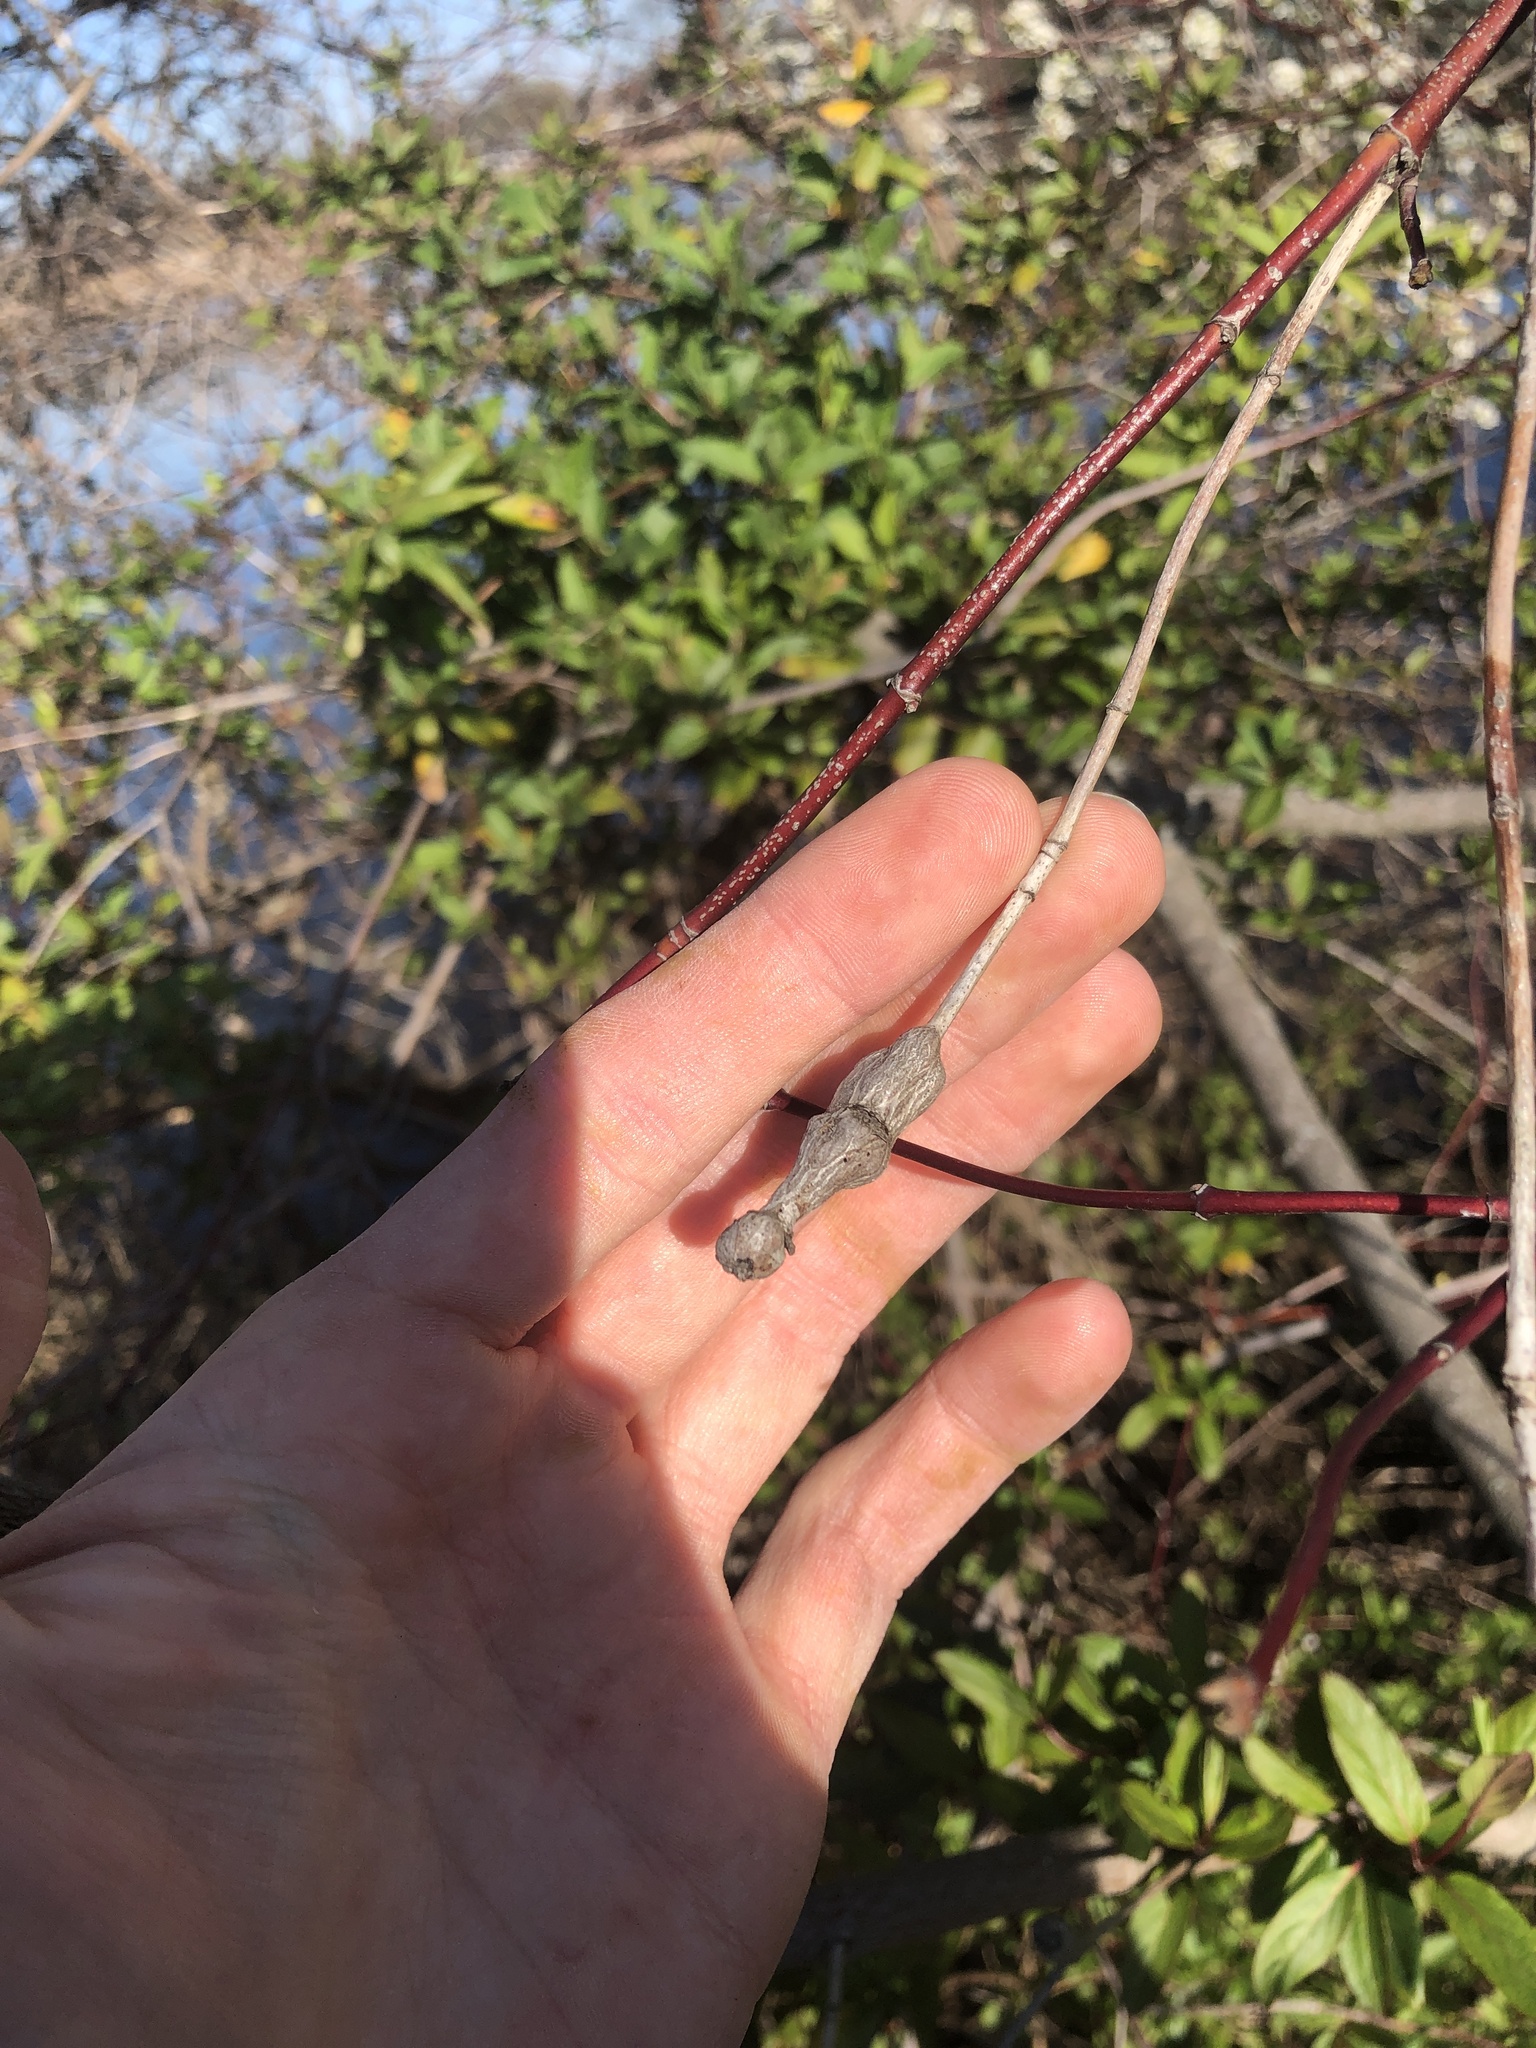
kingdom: Animalia
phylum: Arthropoda
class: Insecta
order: Diptera
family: Cecidomyiidae
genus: Neolasioptera
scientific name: Neolasioptera cornicola
